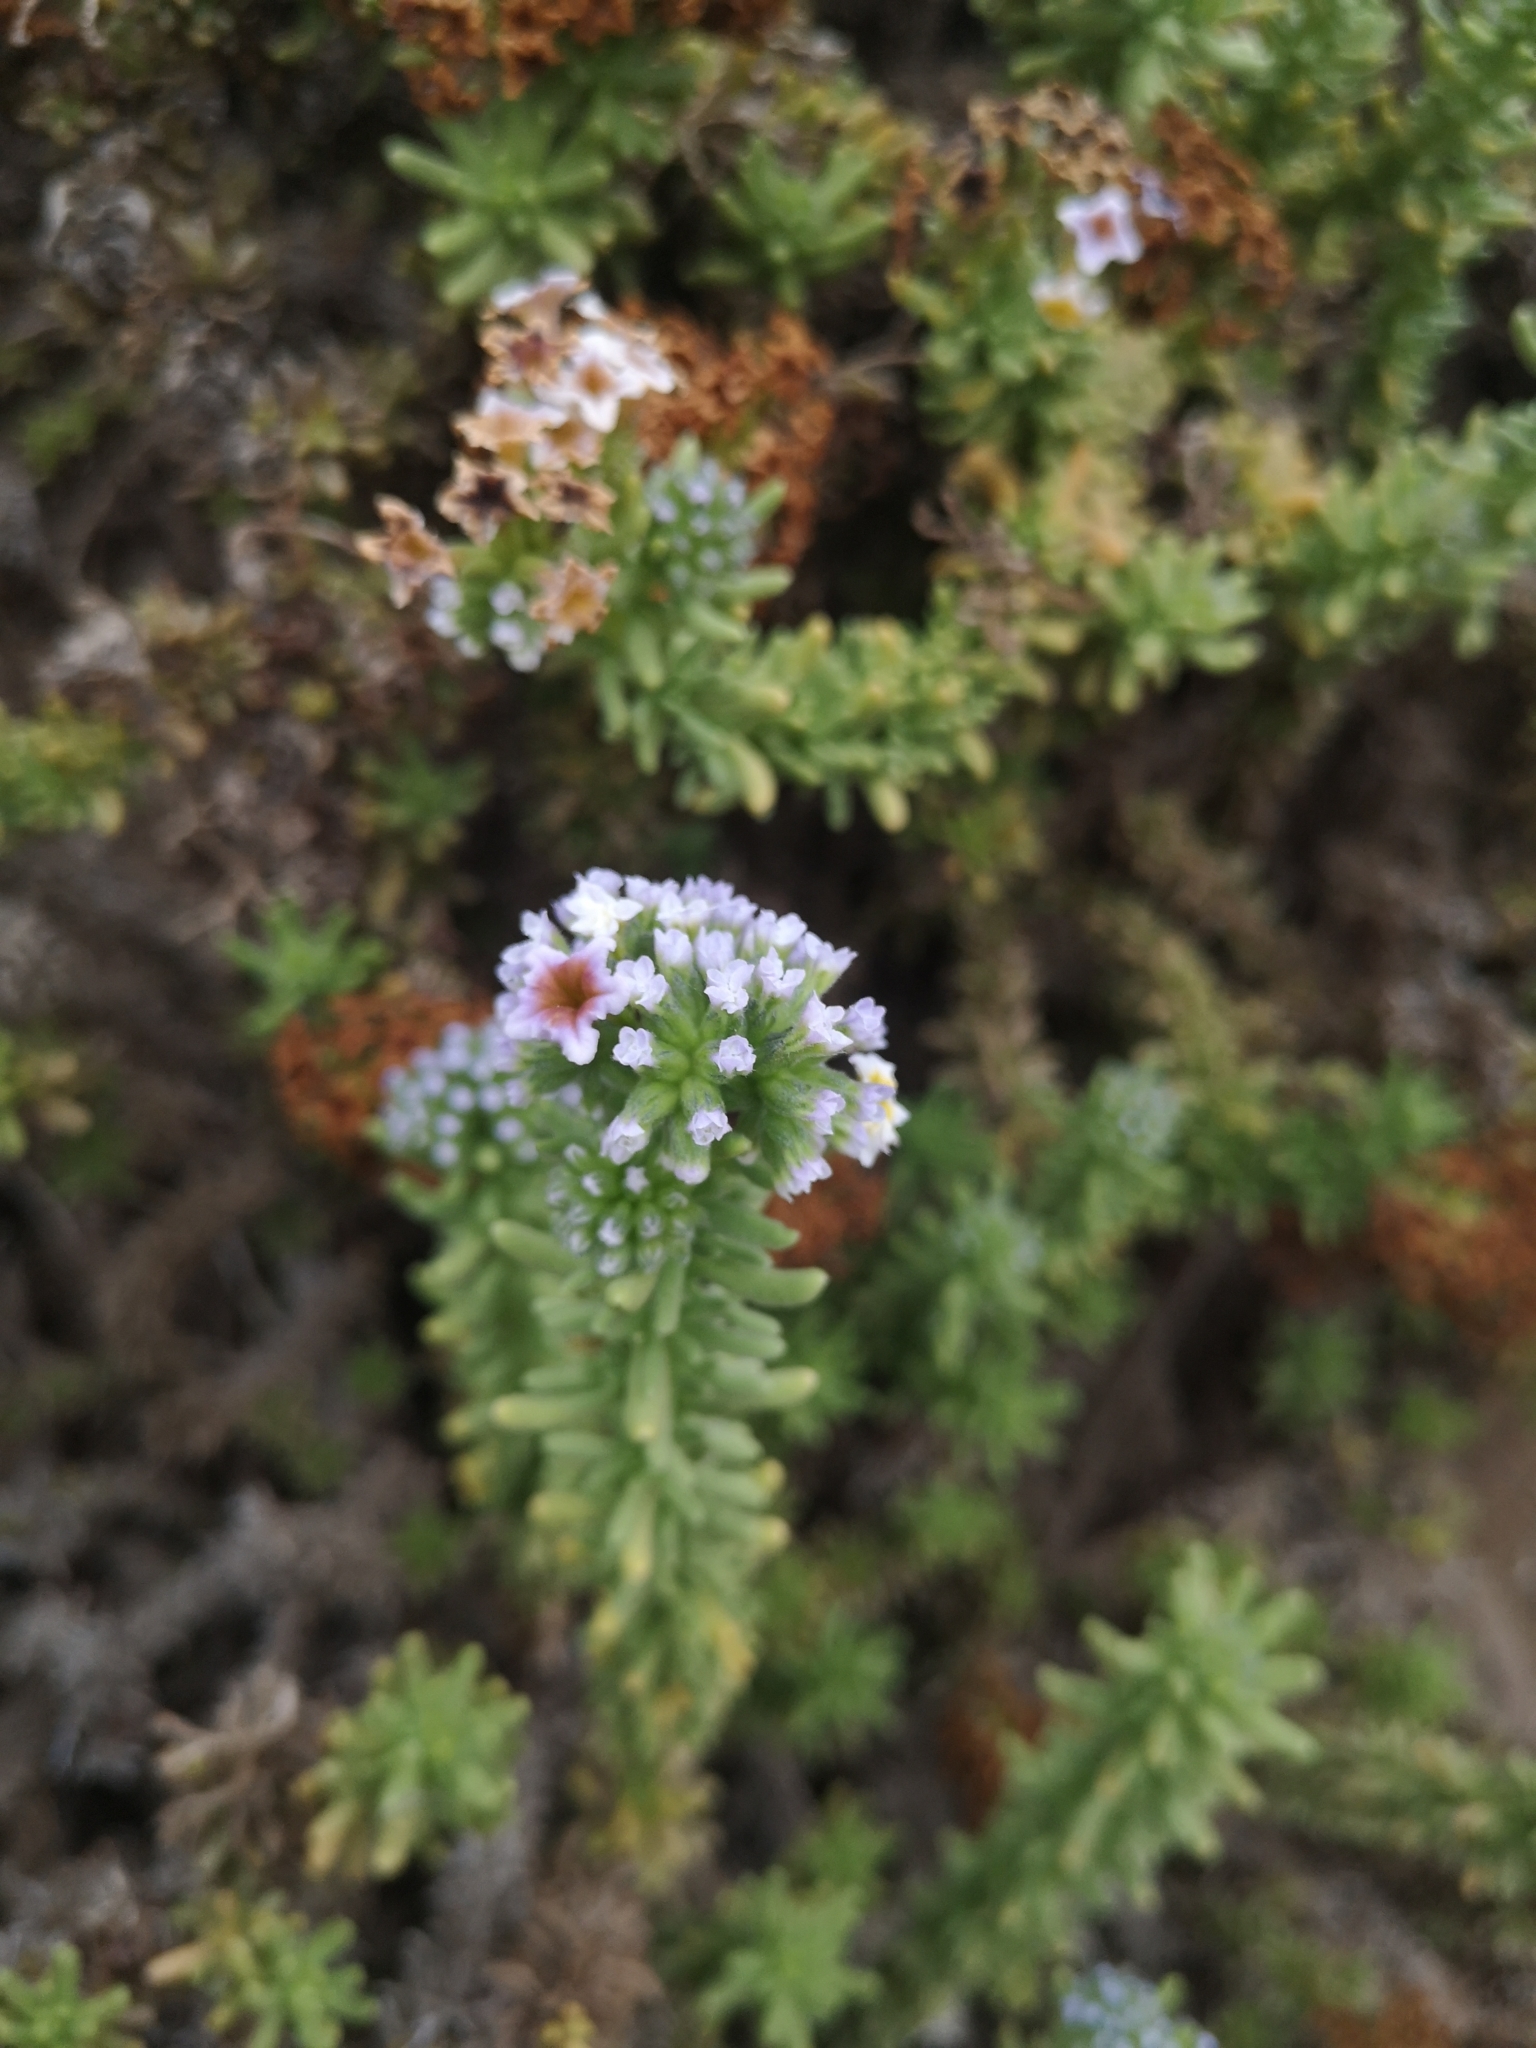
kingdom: Plantae
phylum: Tracheophyta
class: Magnoliopsida
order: Boraginales
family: Heliotropiaceae
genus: Heliotropium
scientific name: Heliotropium pycnophyllum
